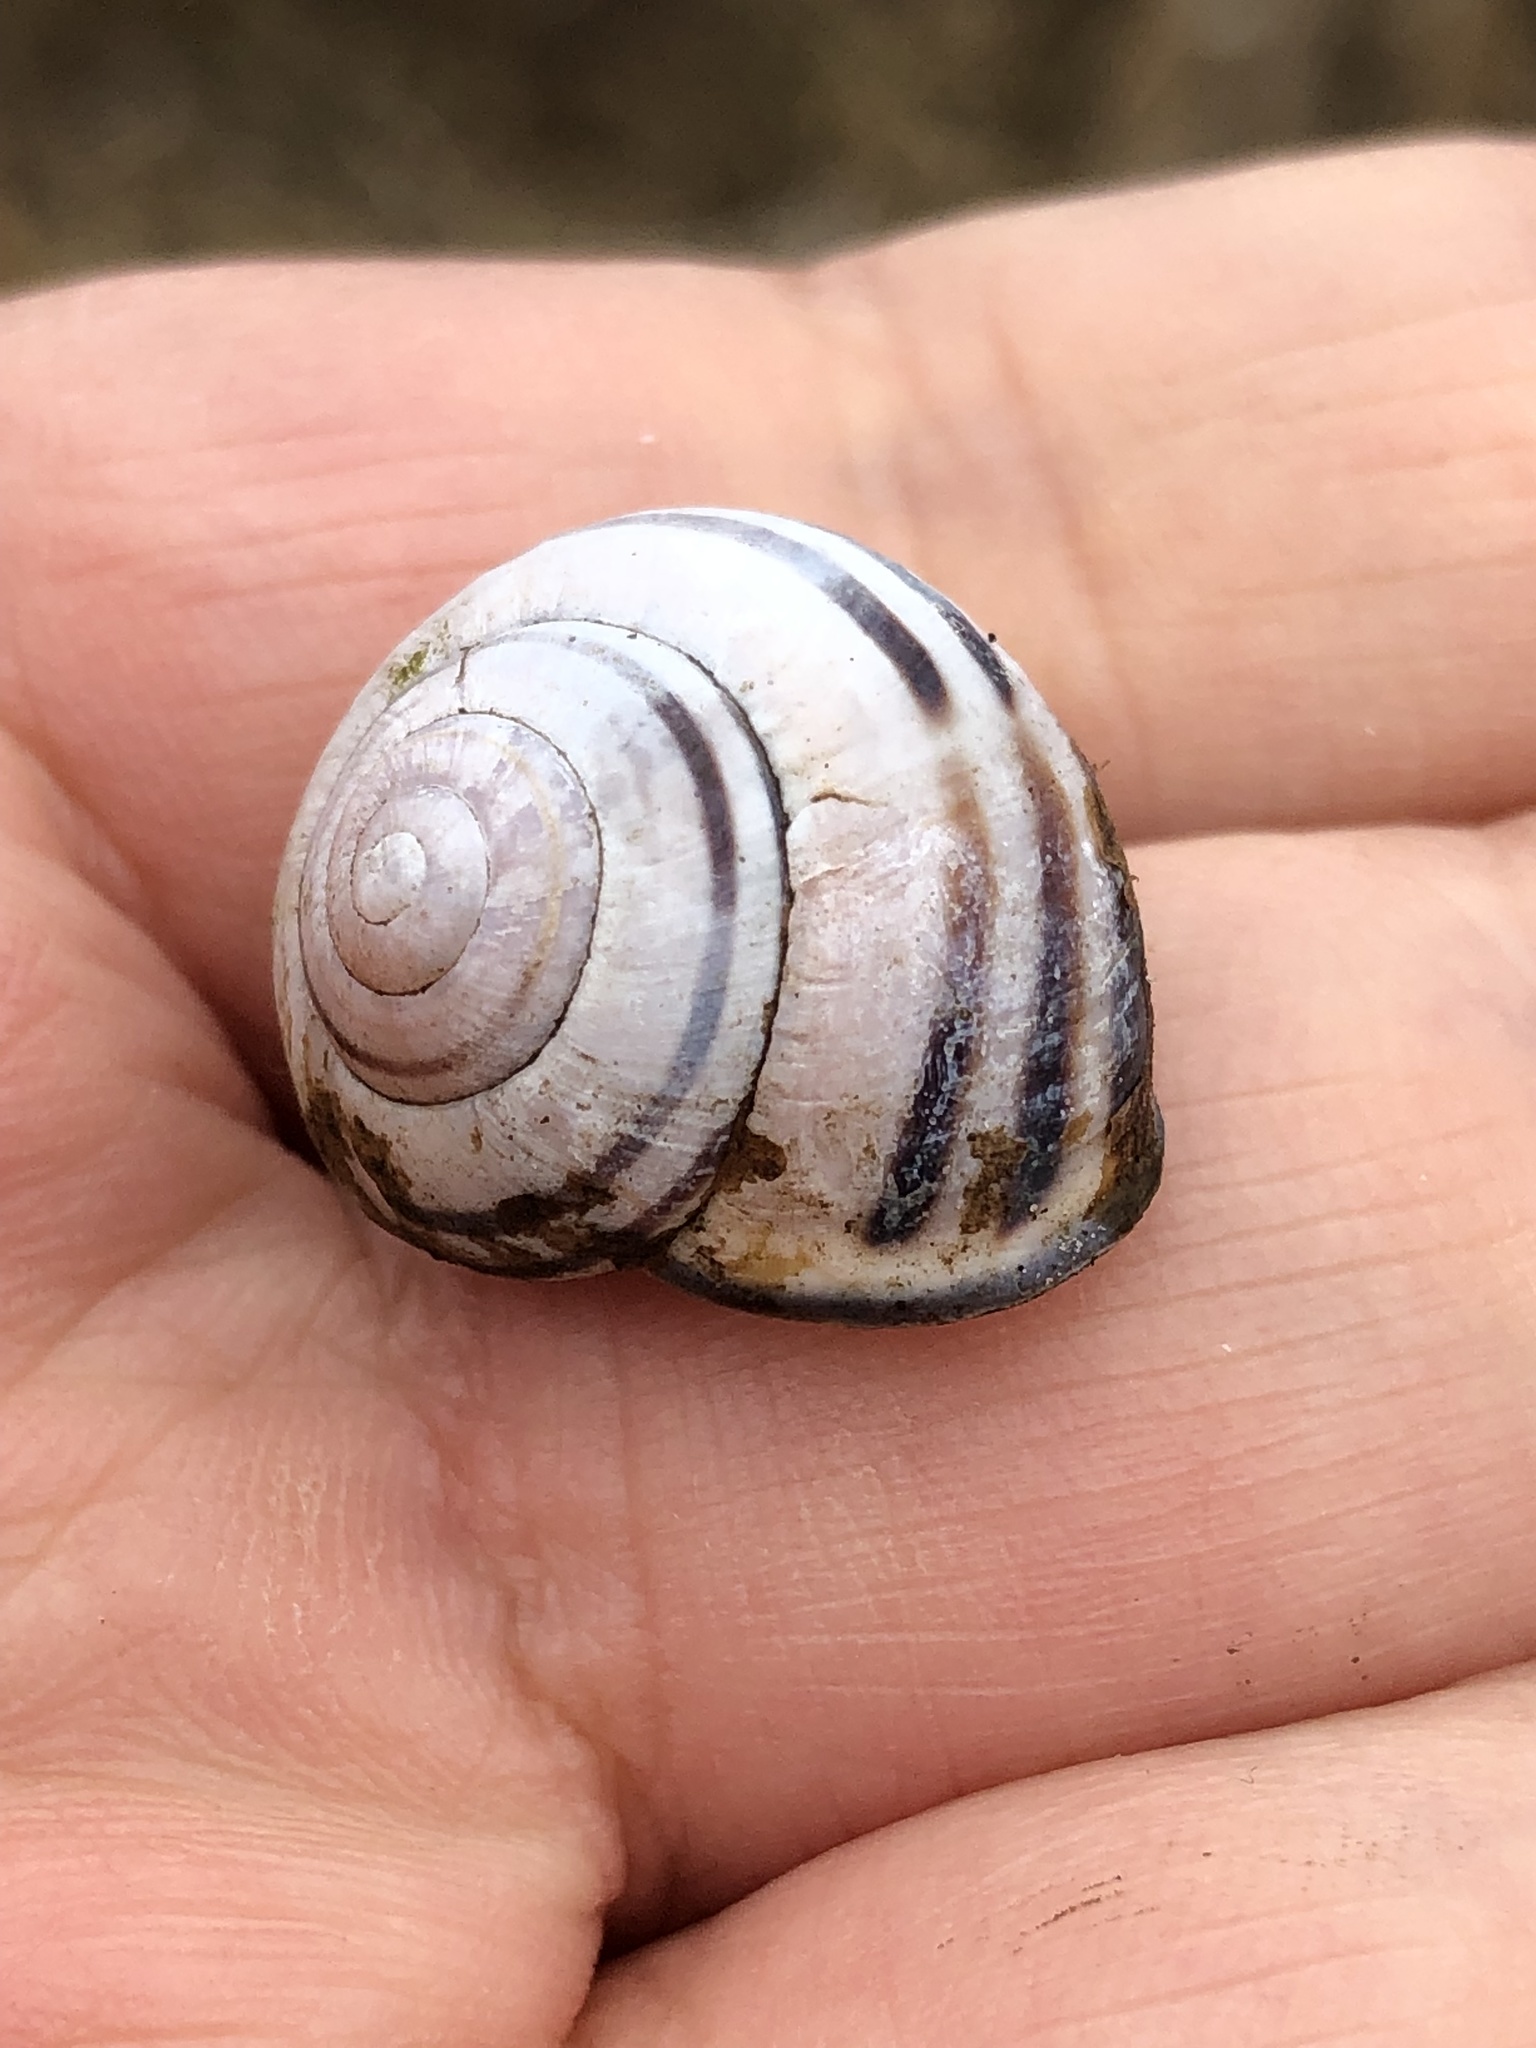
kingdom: Animalia
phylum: Mollusca
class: Gastropoda
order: Stylommatophora
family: Helicidae
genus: Cepaea
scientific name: Cepaea nemoralis
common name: Grovesnail
